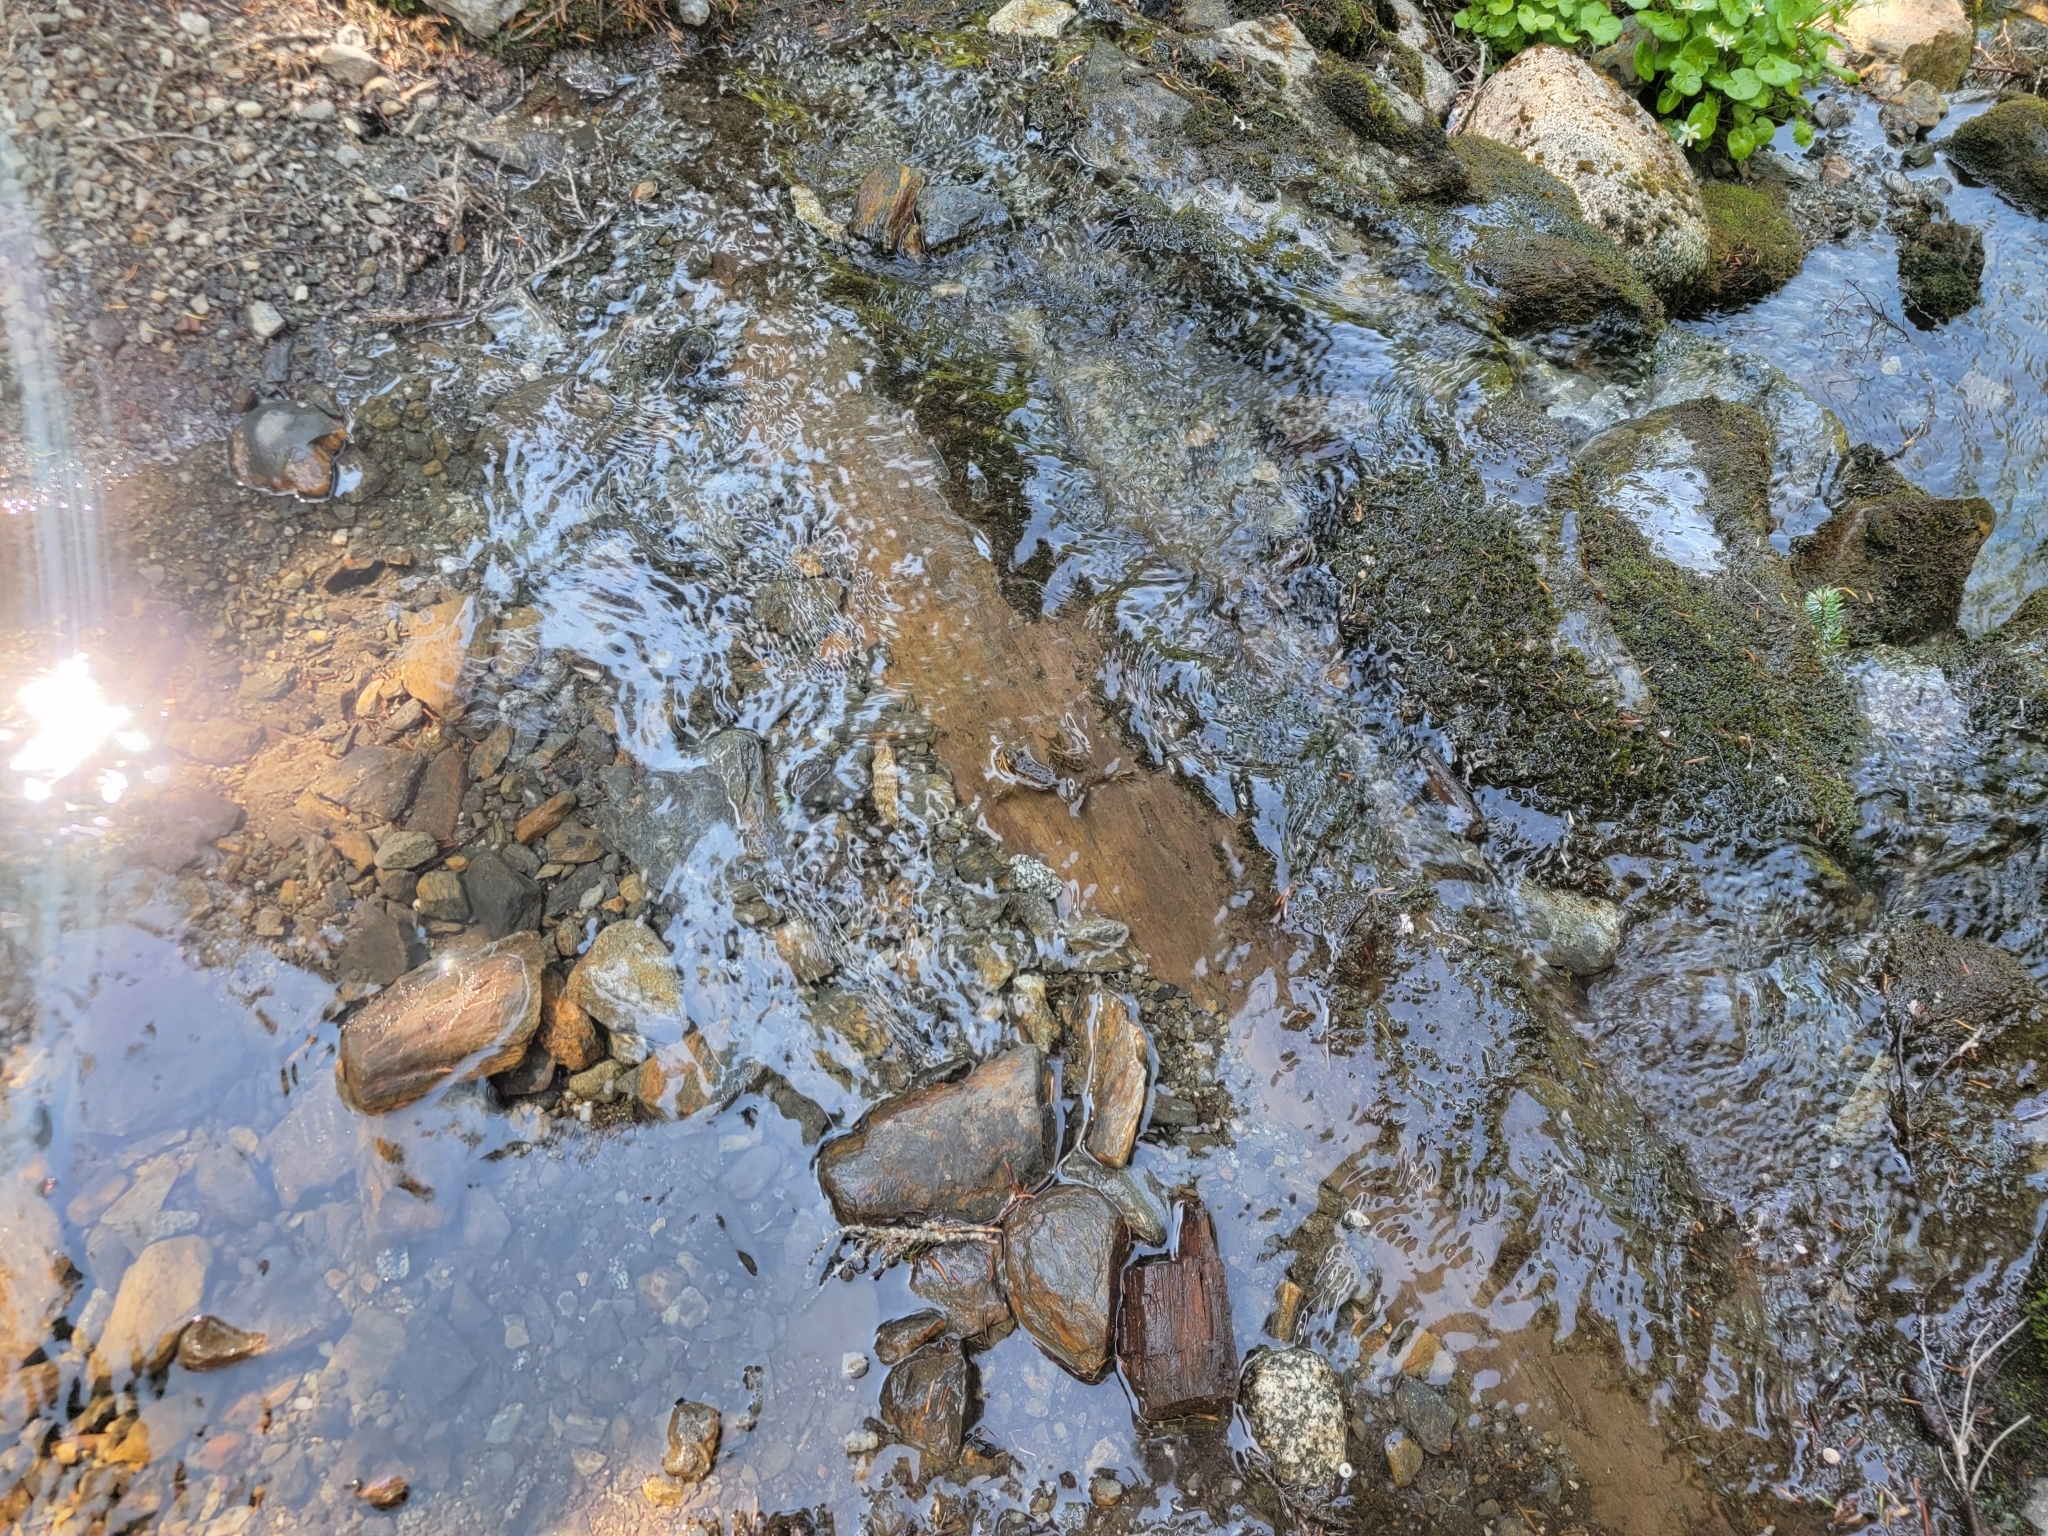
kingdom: Animalia
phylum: Chordata
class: Amphibia
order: Anura
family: Ranidae
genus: Rana
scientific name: Rana cascadae
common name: Cascades frog
